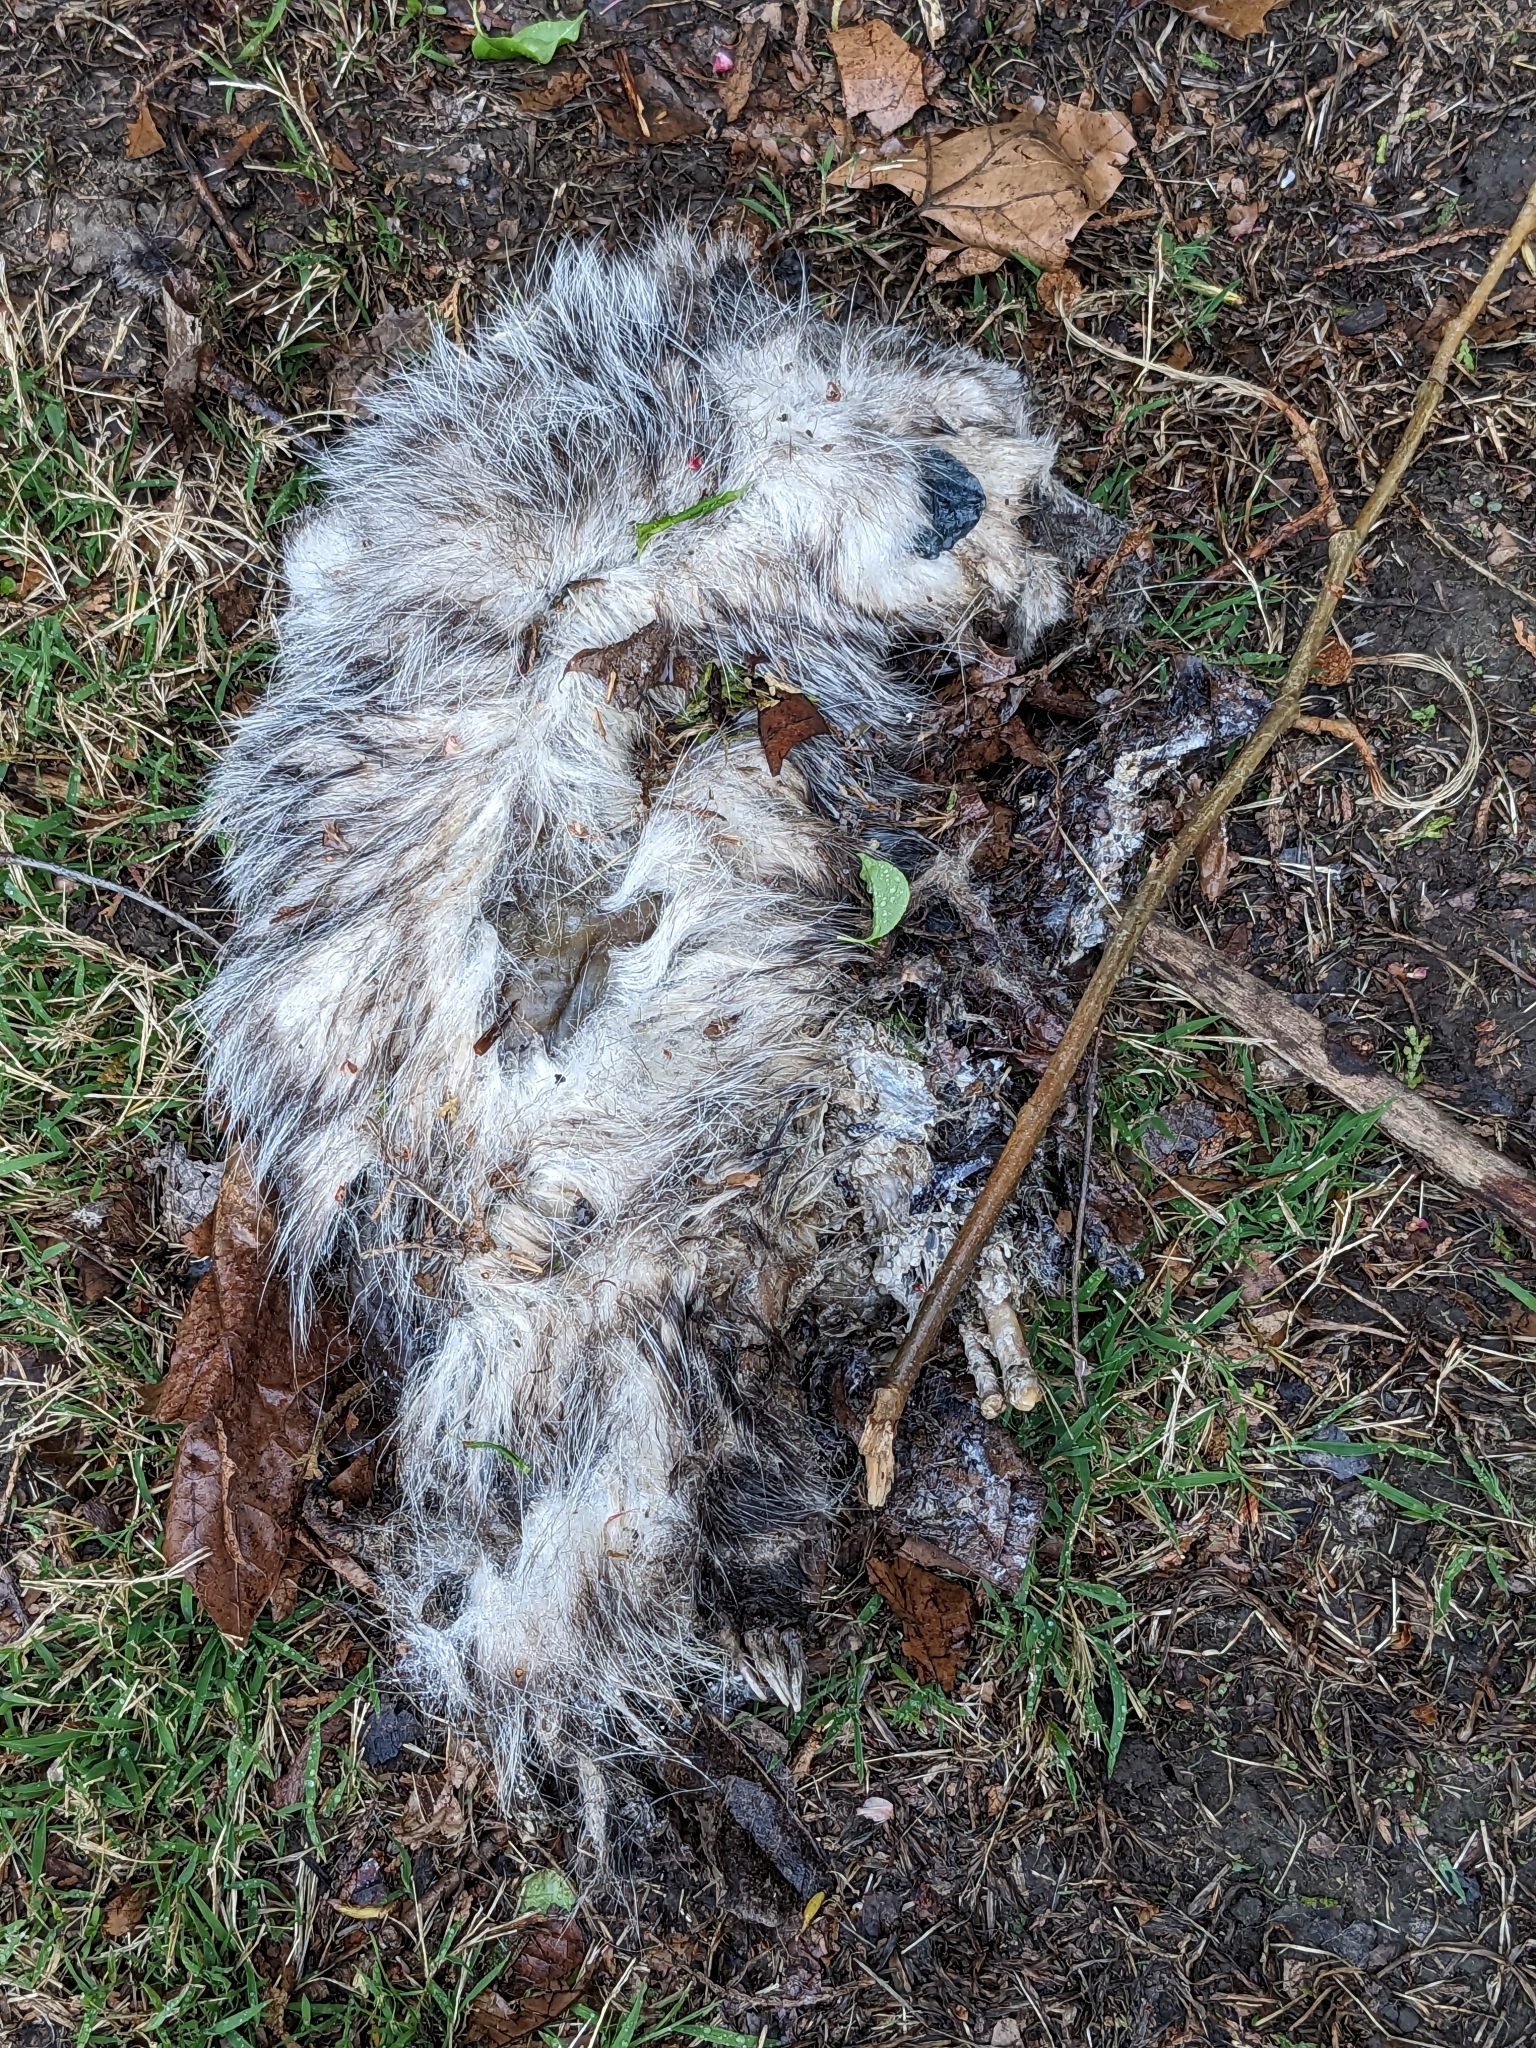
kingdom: Animalia
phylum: Chordata
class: Mammalia
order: Didelphimorphia
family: Didelphidae
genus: Didelphis
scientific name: Didelphis virginiana
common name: Virginia opossum
